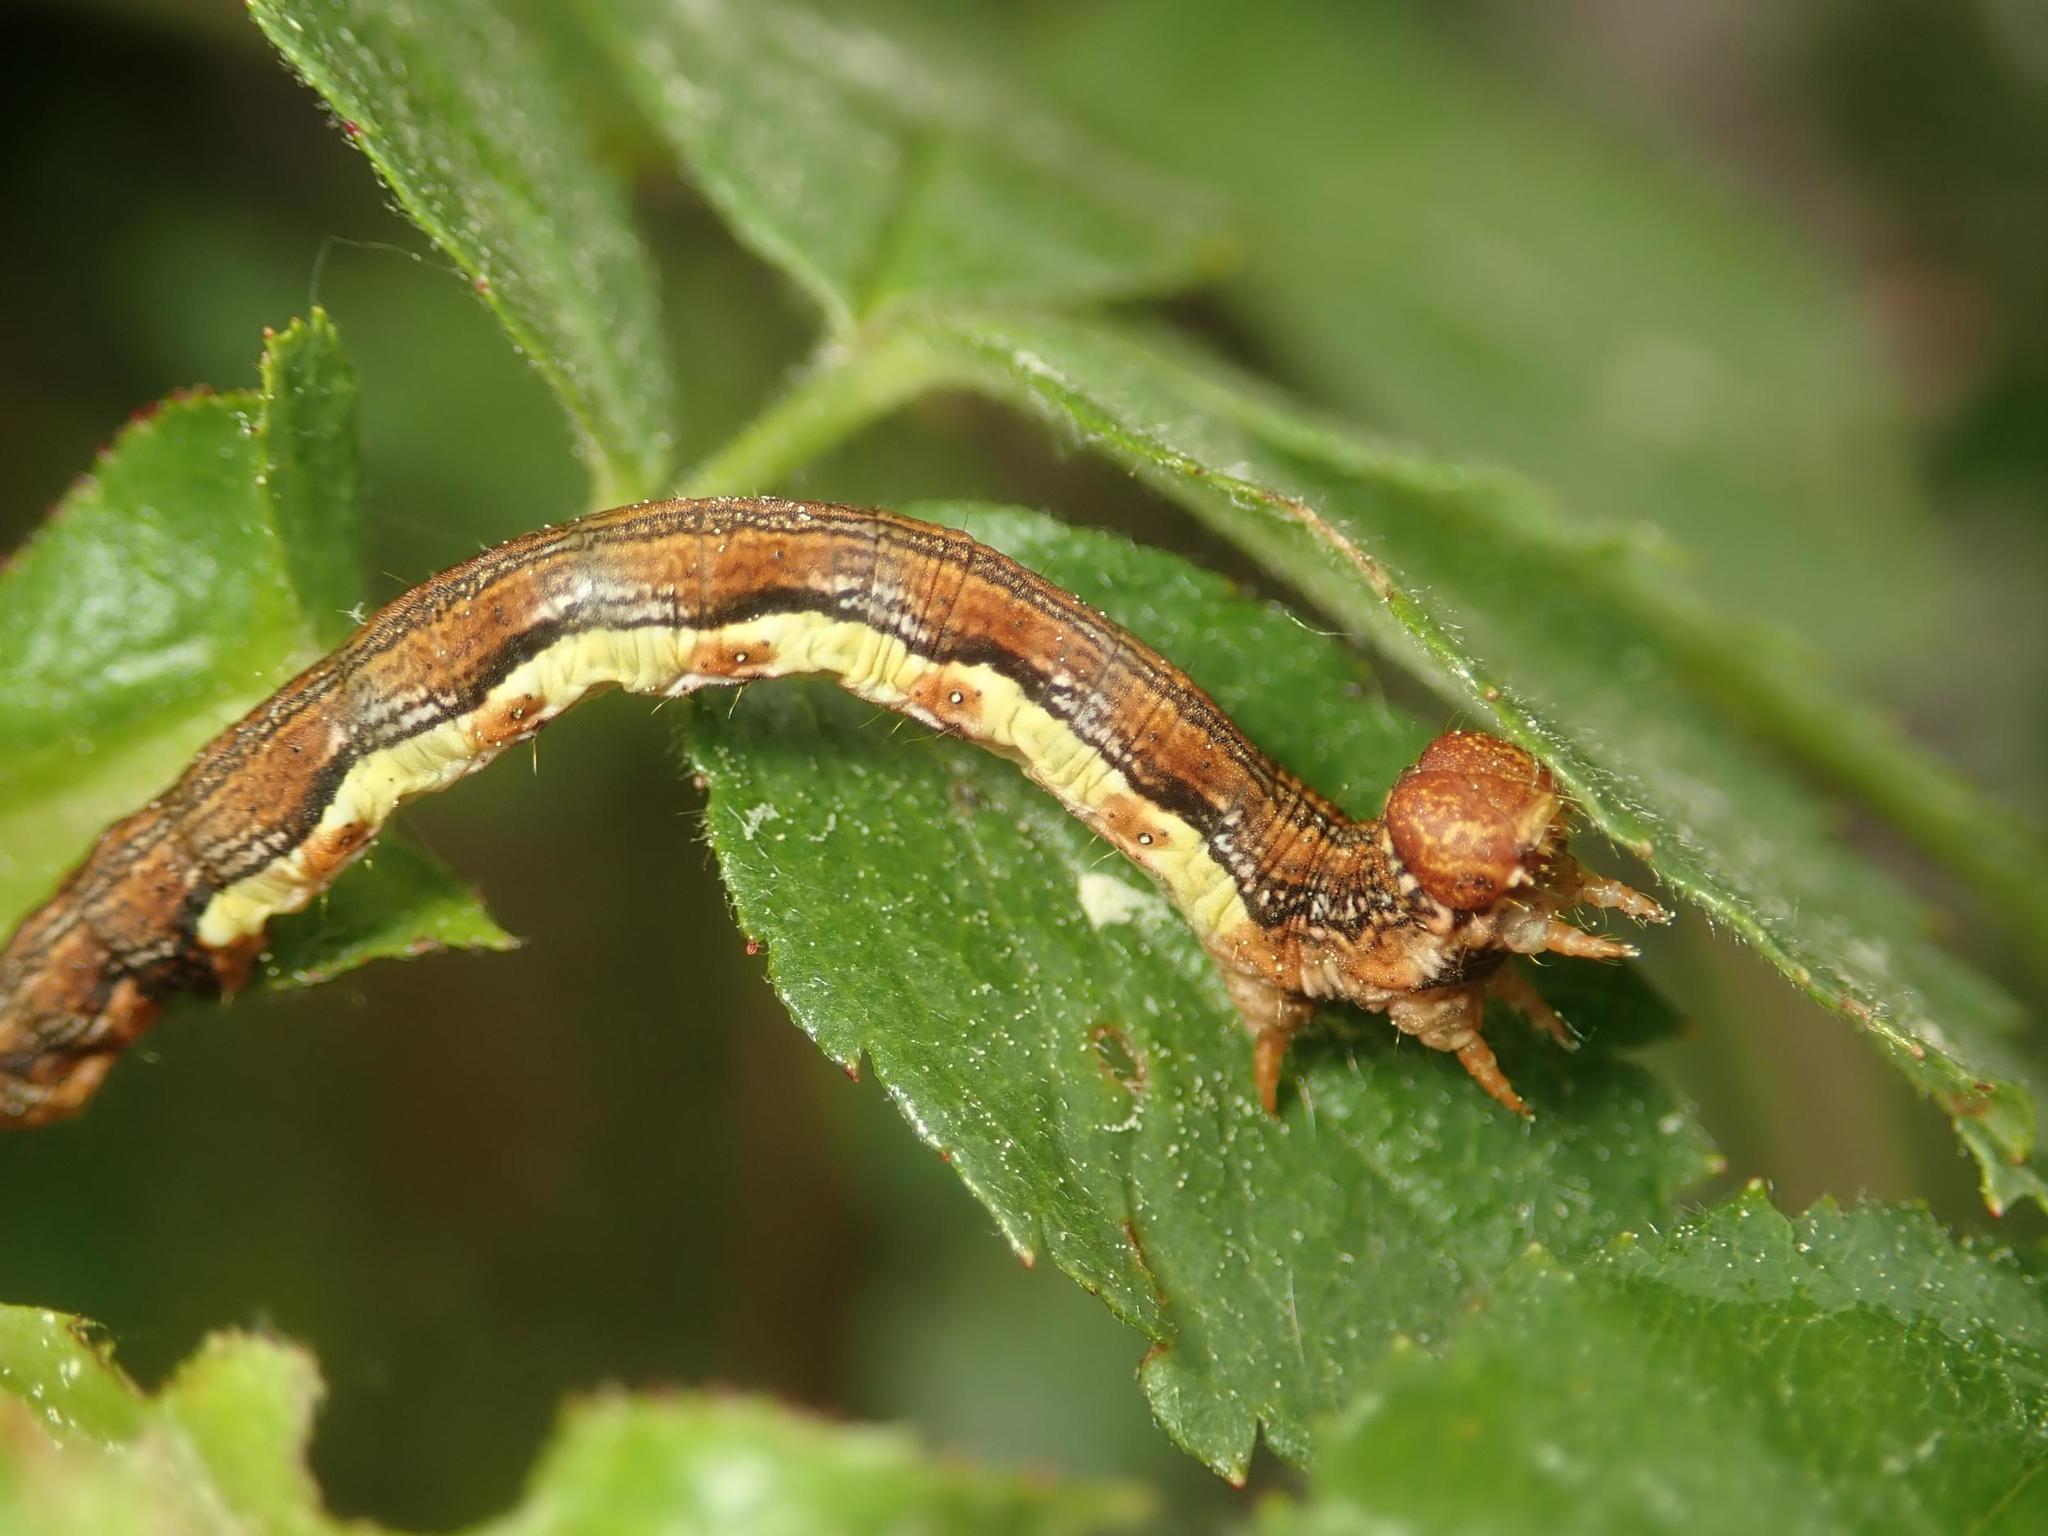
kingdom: Animalia
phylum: Arthropoda
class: Insecta
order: Lepidoptera
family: Geometridae
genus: Erannis
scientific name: Erannis defoliaria
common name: Mottled umber
